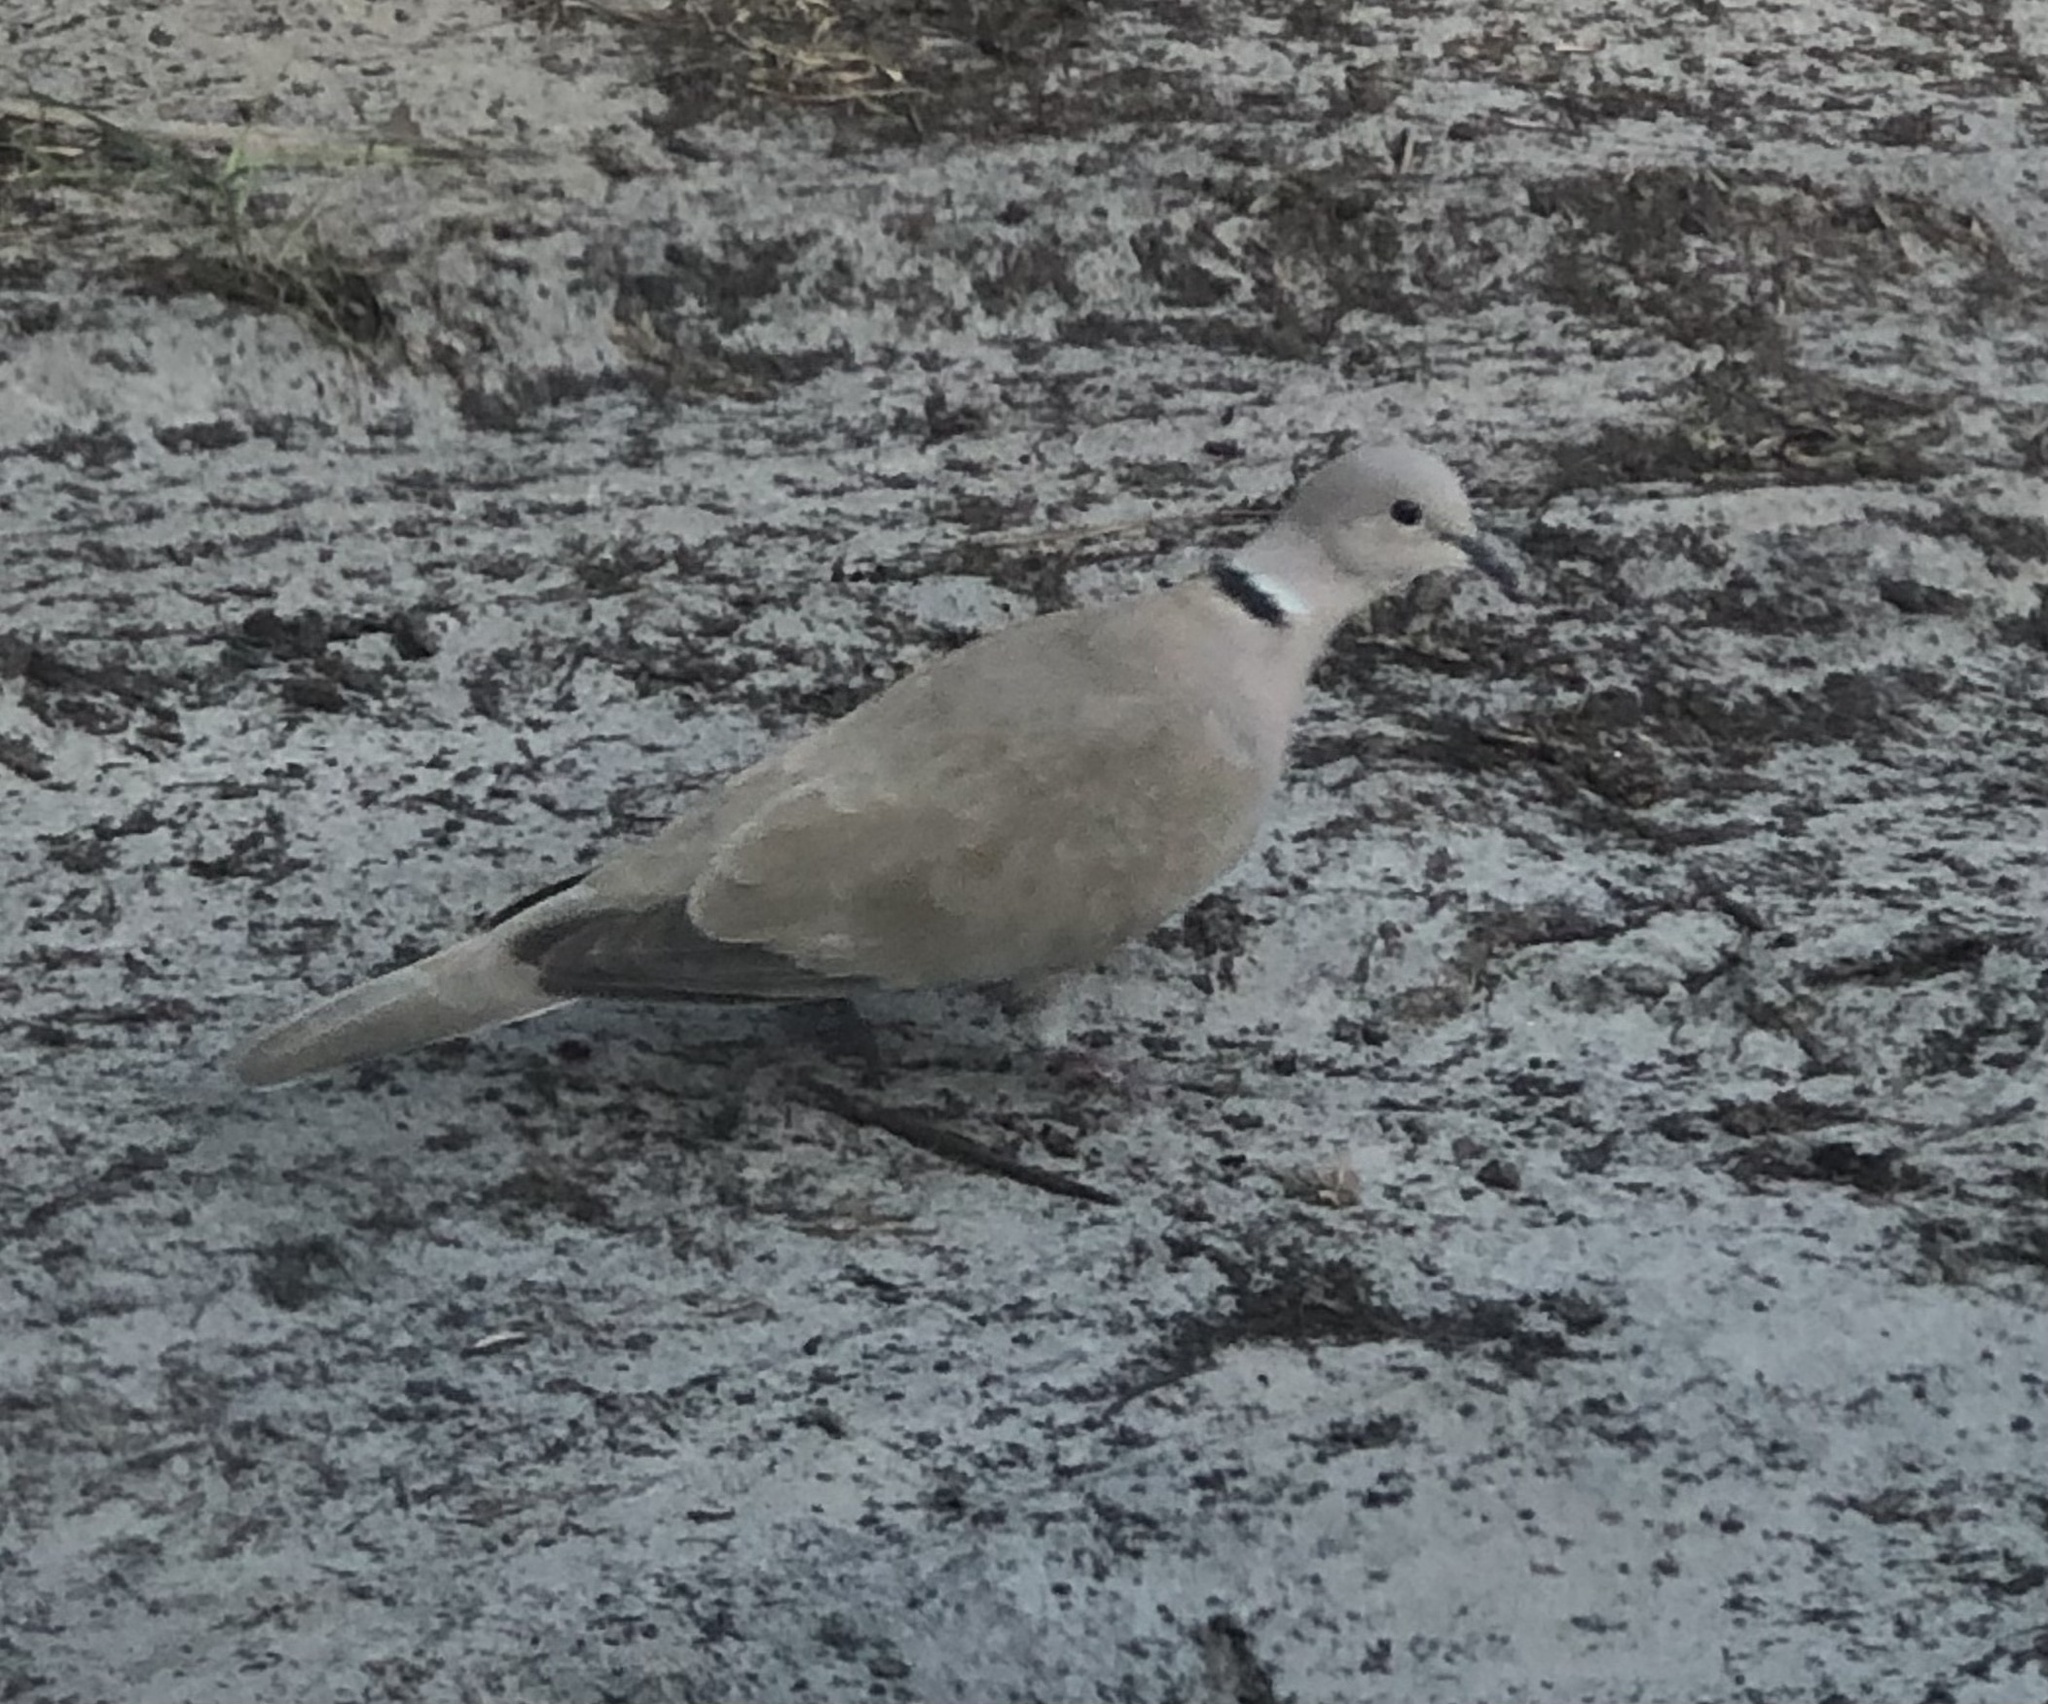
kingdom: Animalia
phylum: Chordata
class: Aves
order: Columbiformes
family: Columbidae
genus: Streptopelia
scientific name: Streptopelia decaocto
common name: Eurasian collared dove
